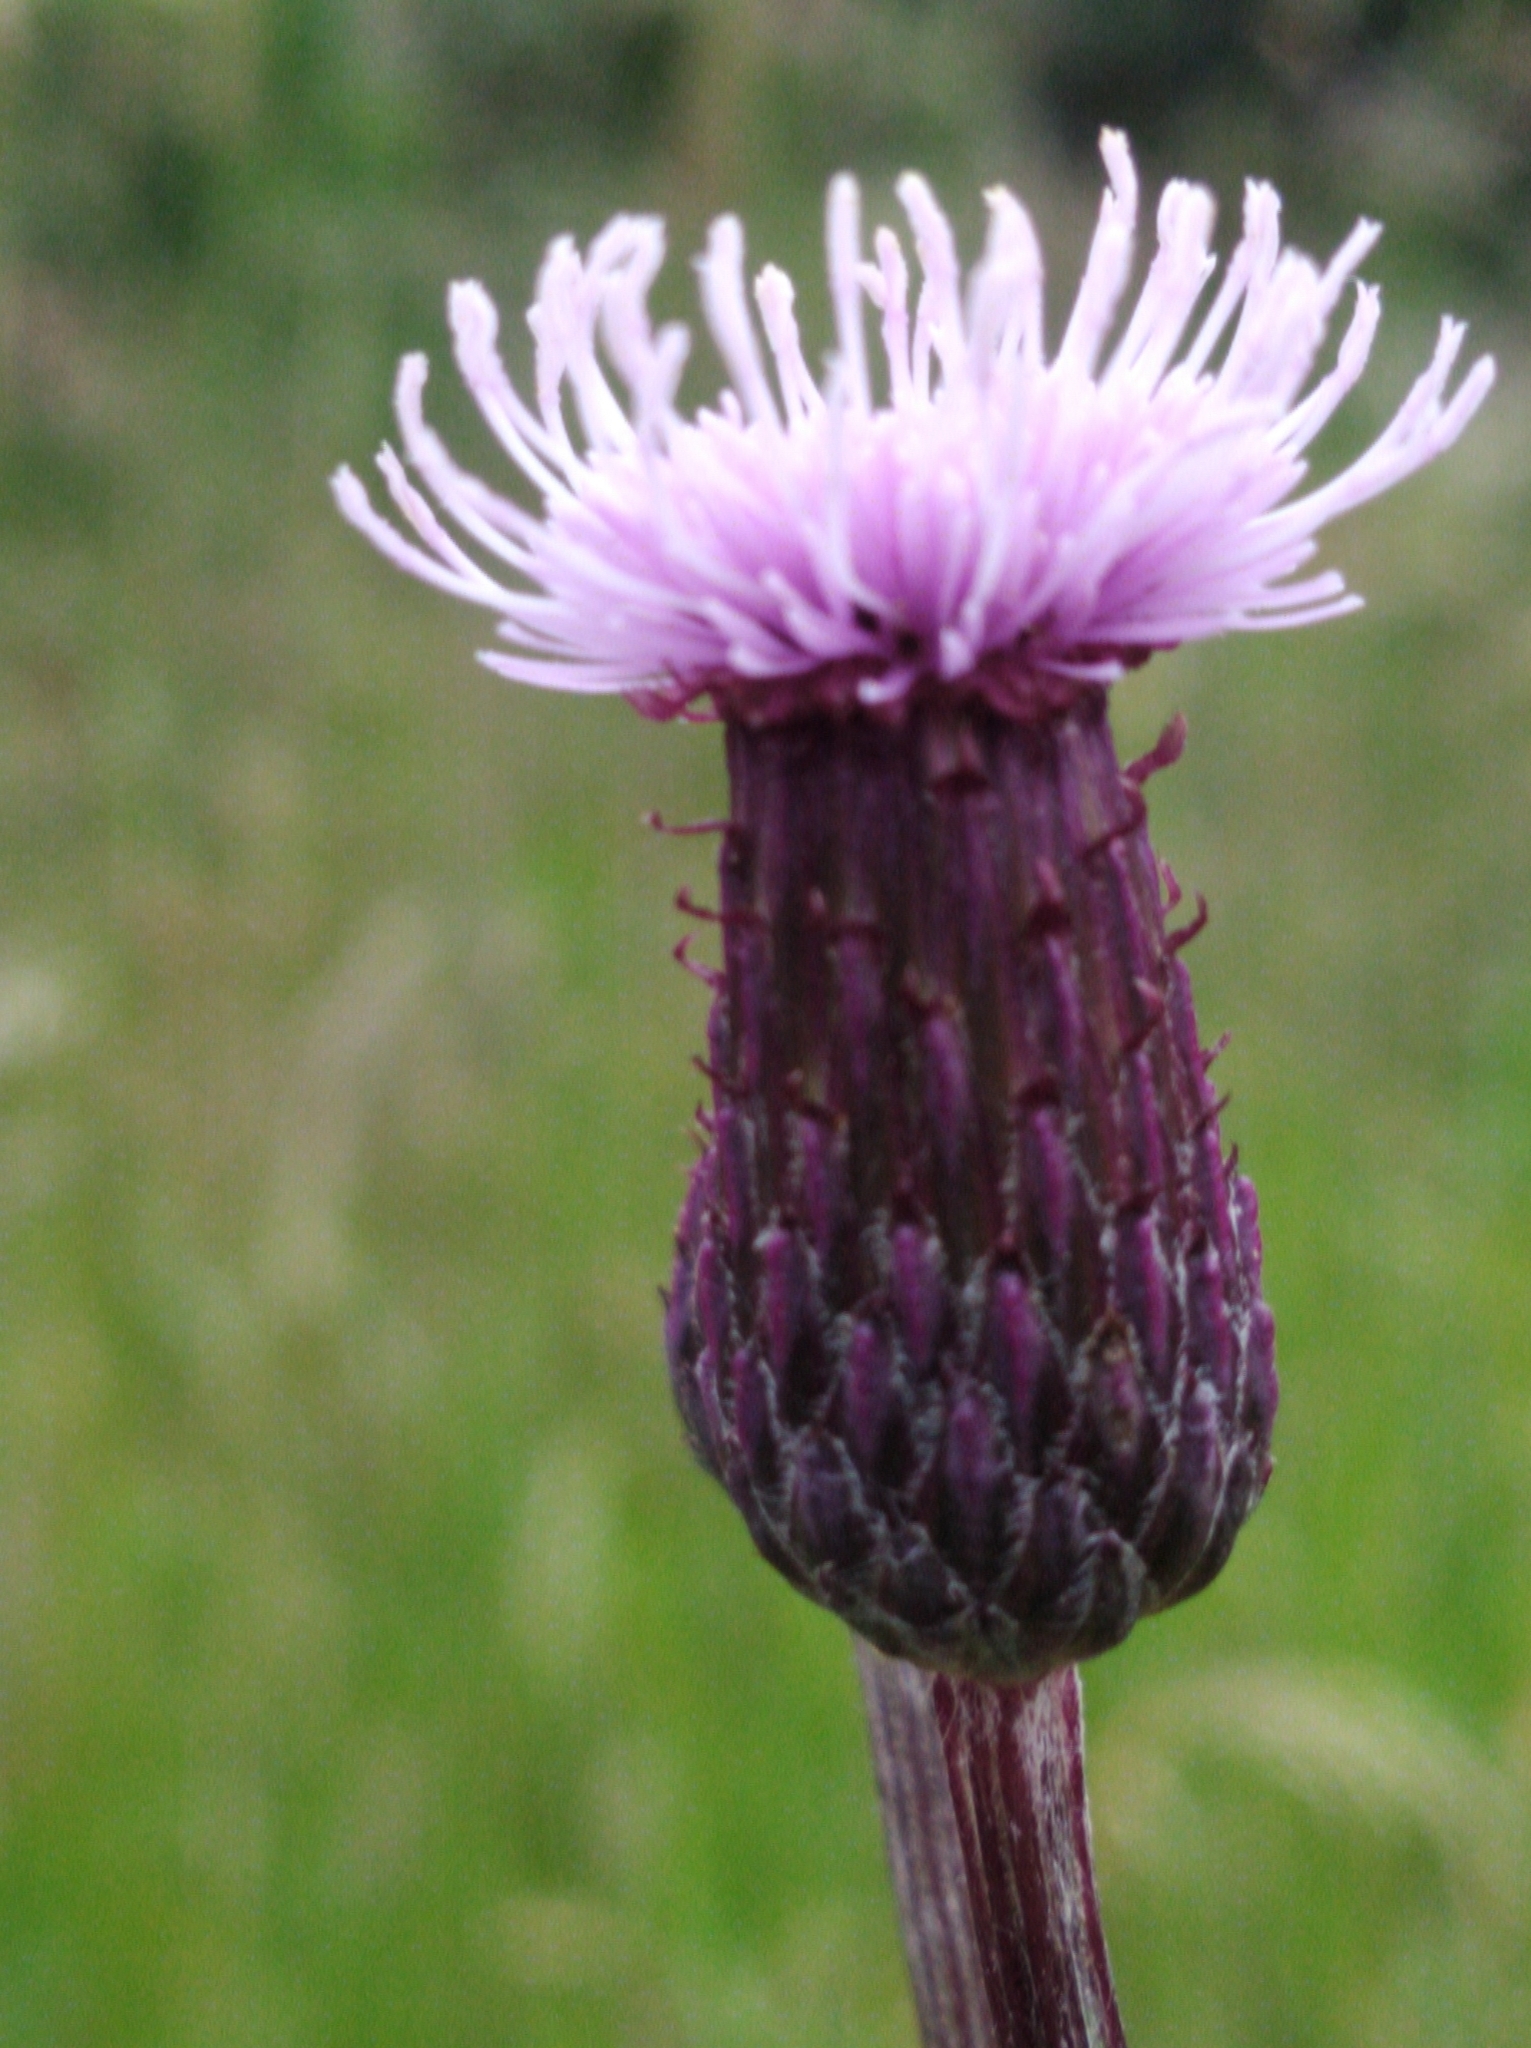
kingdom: Plantae
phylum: Tracheophyta
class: Magnoliopsida
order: Asterales
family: Asteraceae
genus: Cirsium
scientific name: Cirsium arvense
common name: Creeping thistle
